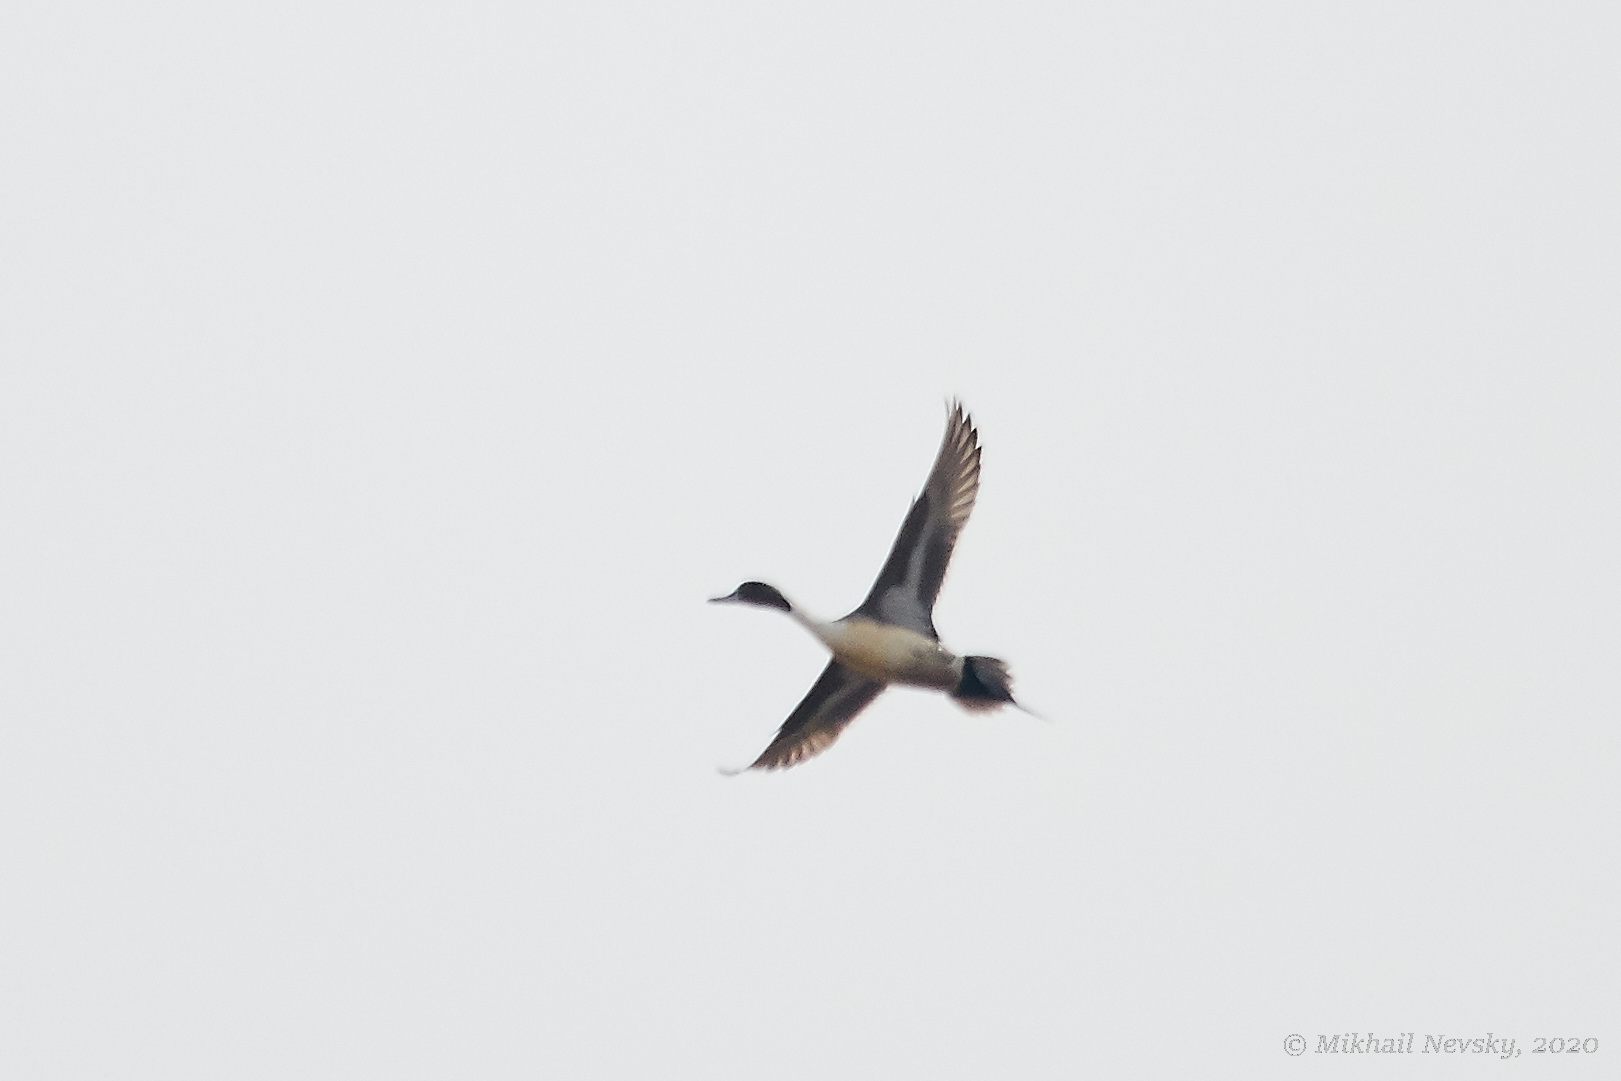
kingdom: Animalia
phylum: Chordata
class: Aves
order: Anseriformes
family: Anatidae
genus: Anas
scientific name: Anas acuta
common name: Northern pintail
